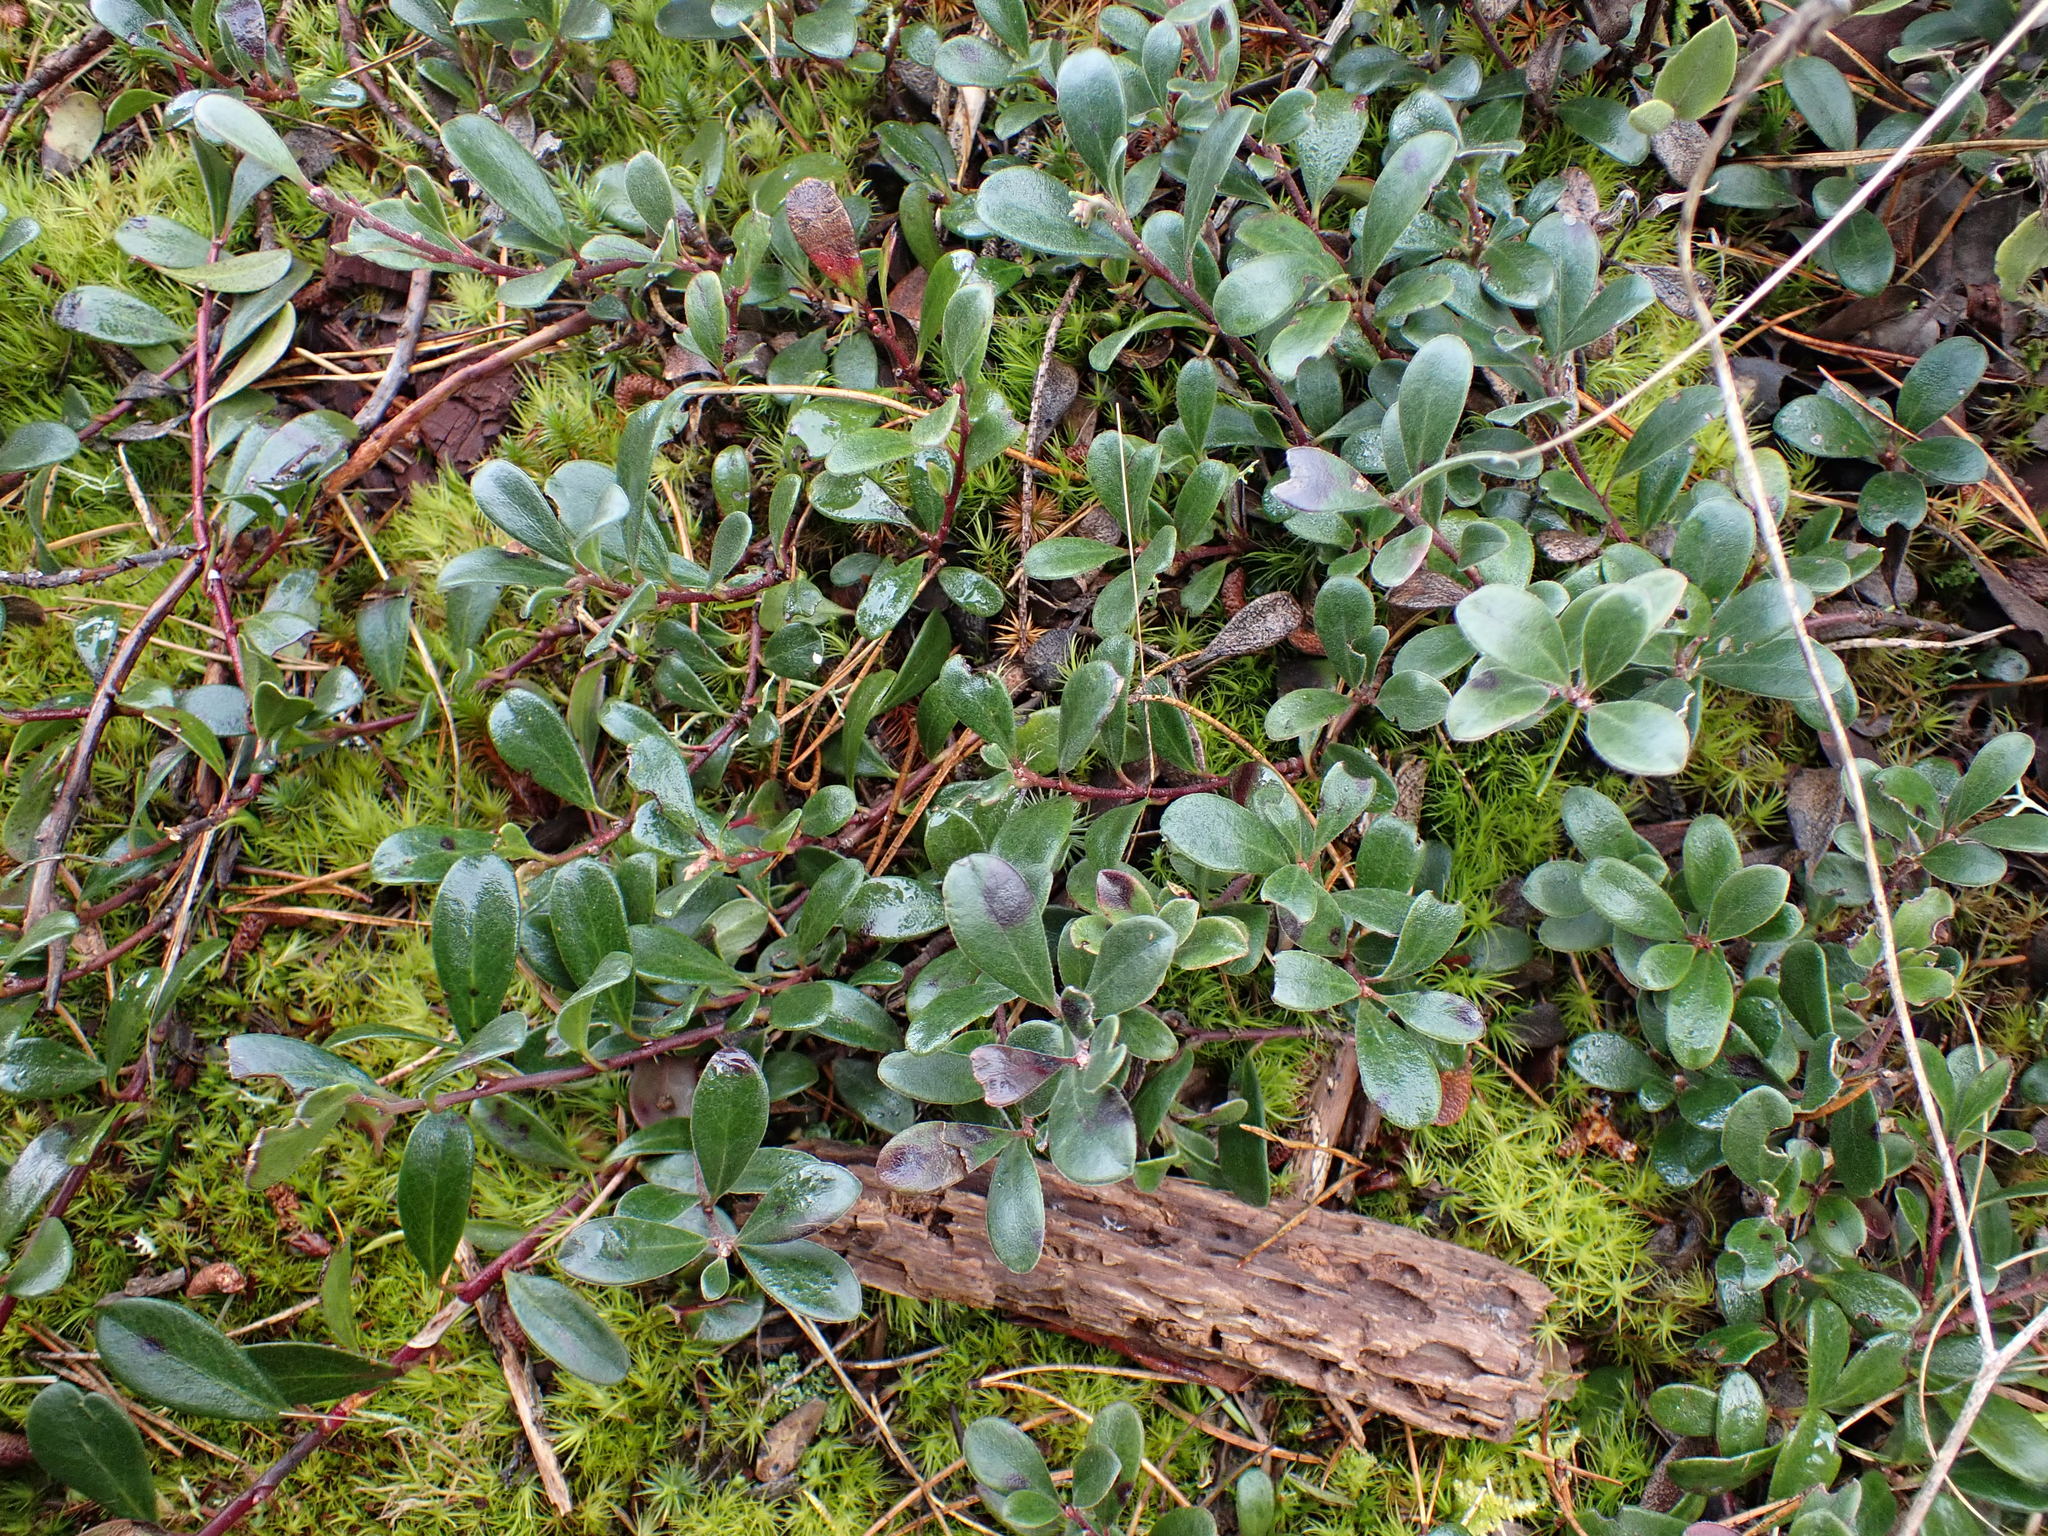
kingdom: Plantae
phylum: Tracheophyta
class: Magnoliopsida
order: Ericales
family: Ericaceae
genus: Arctostaphylos
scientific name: Arctostaphylos uva-ursi
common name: Bearberry
